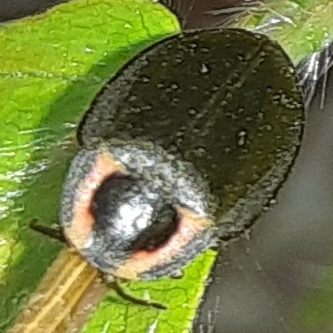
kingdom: Animalia
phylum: Arthropoda
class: Insecta
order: Coleoptera
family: Lampyridae
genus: Photinus
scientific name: Photinus corrusca
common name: Winter firefly
